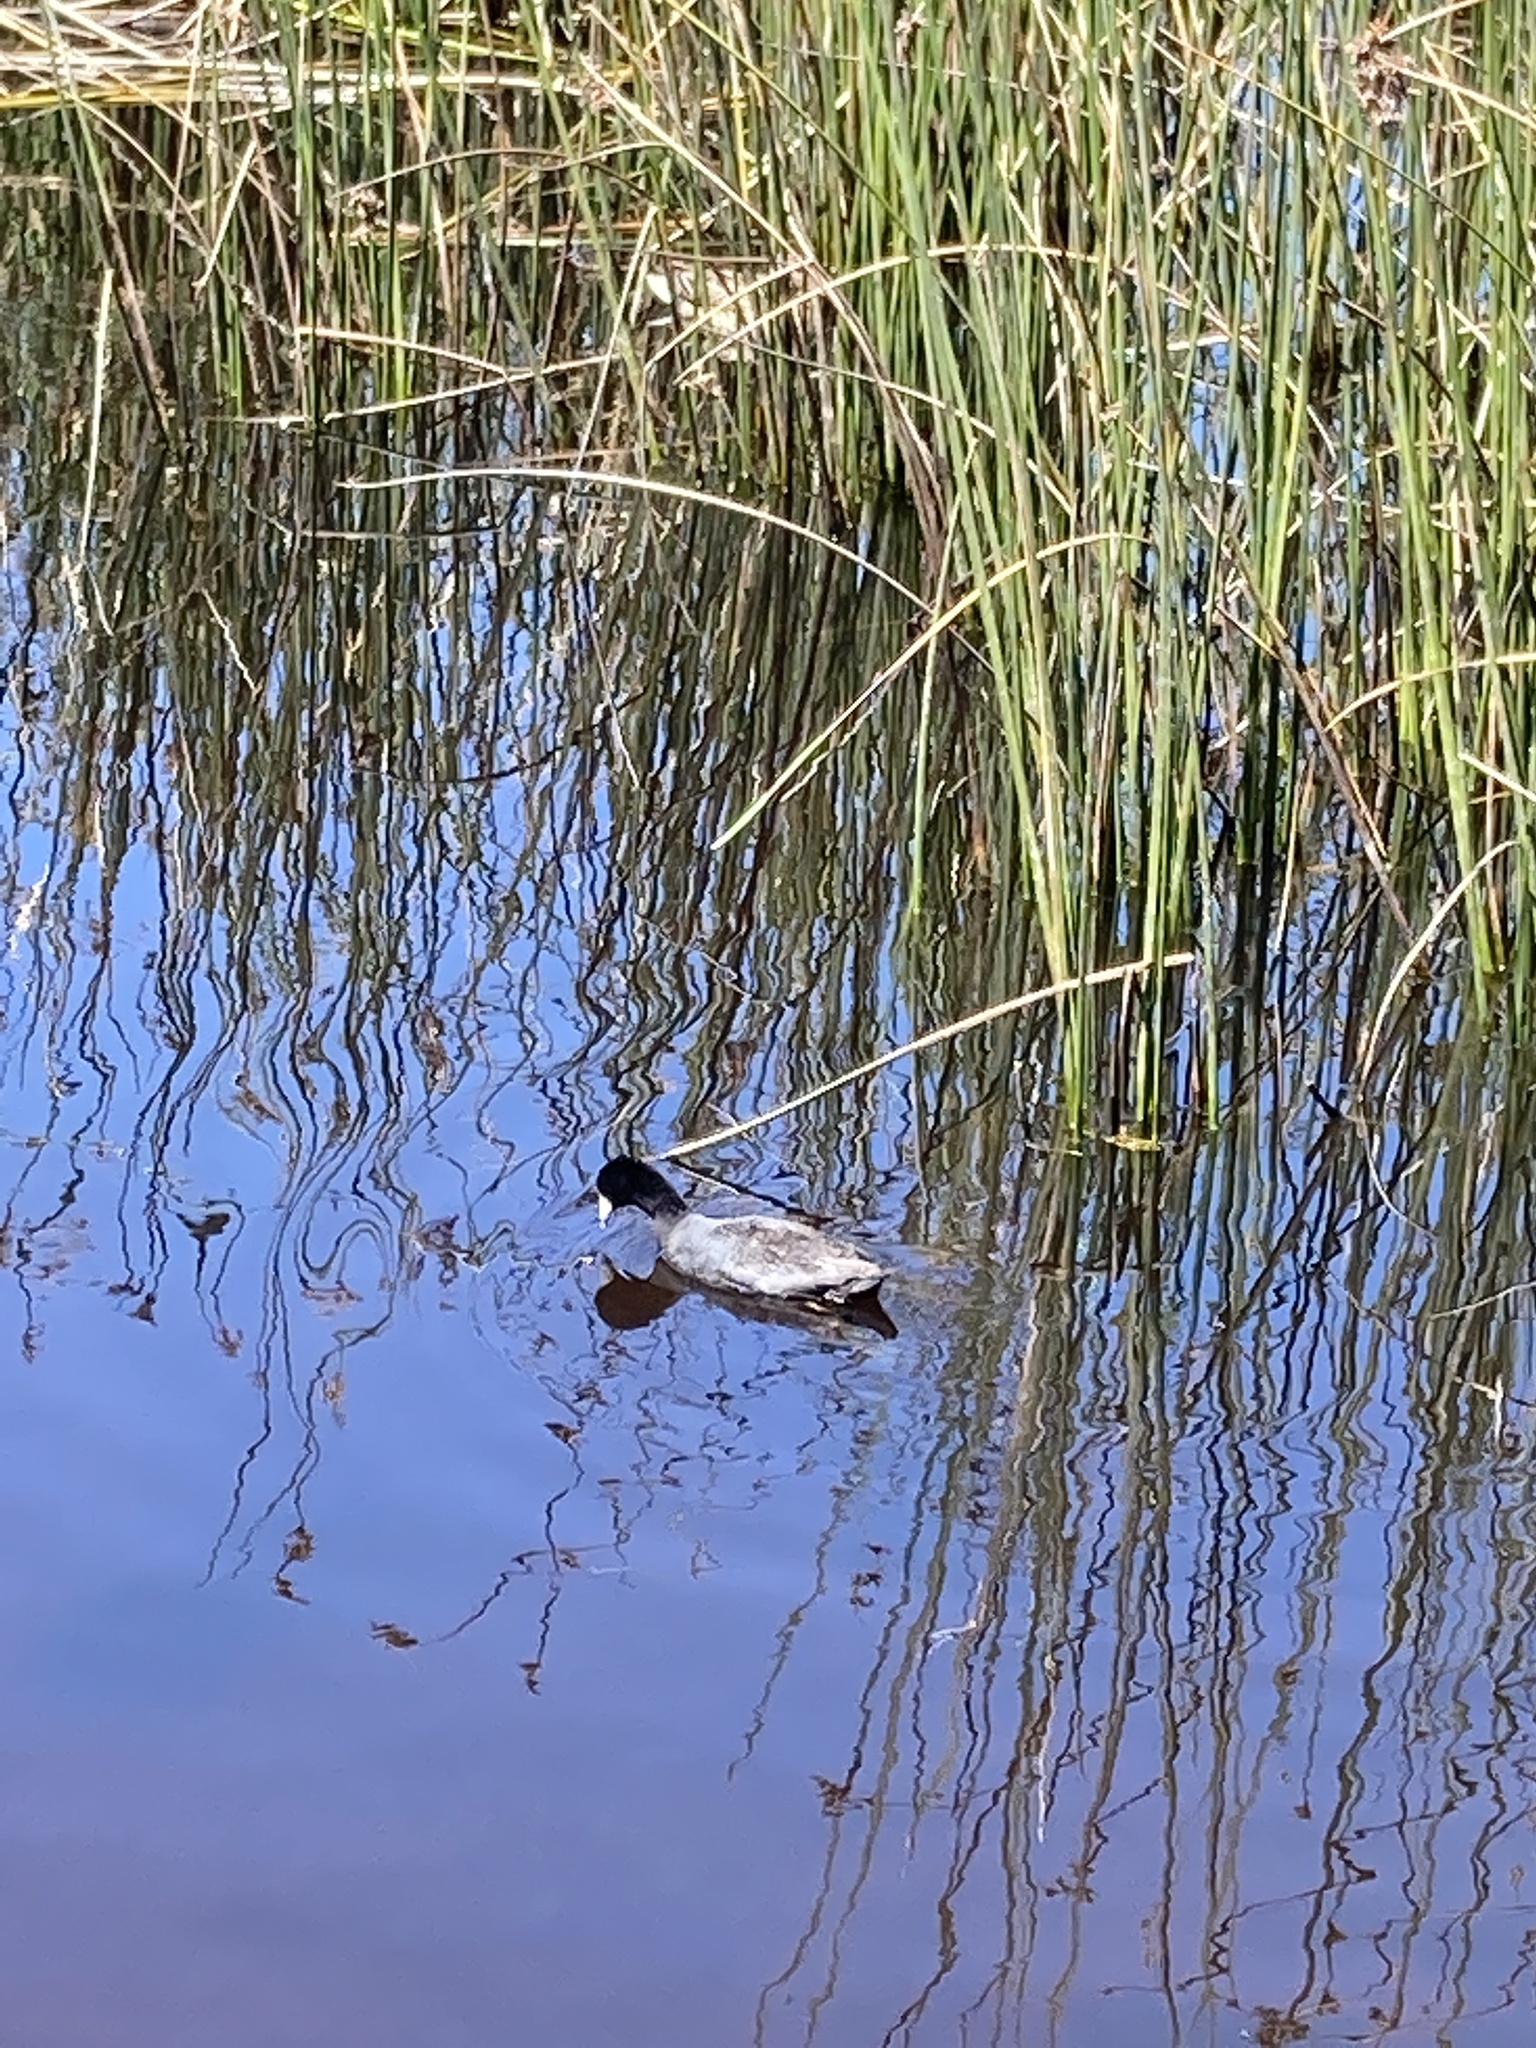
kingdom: Animalia
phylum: Chordata
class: Aves
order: Gruiformes
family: Rallidae
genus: Fulica
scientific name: Fulica americana
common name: American coot
